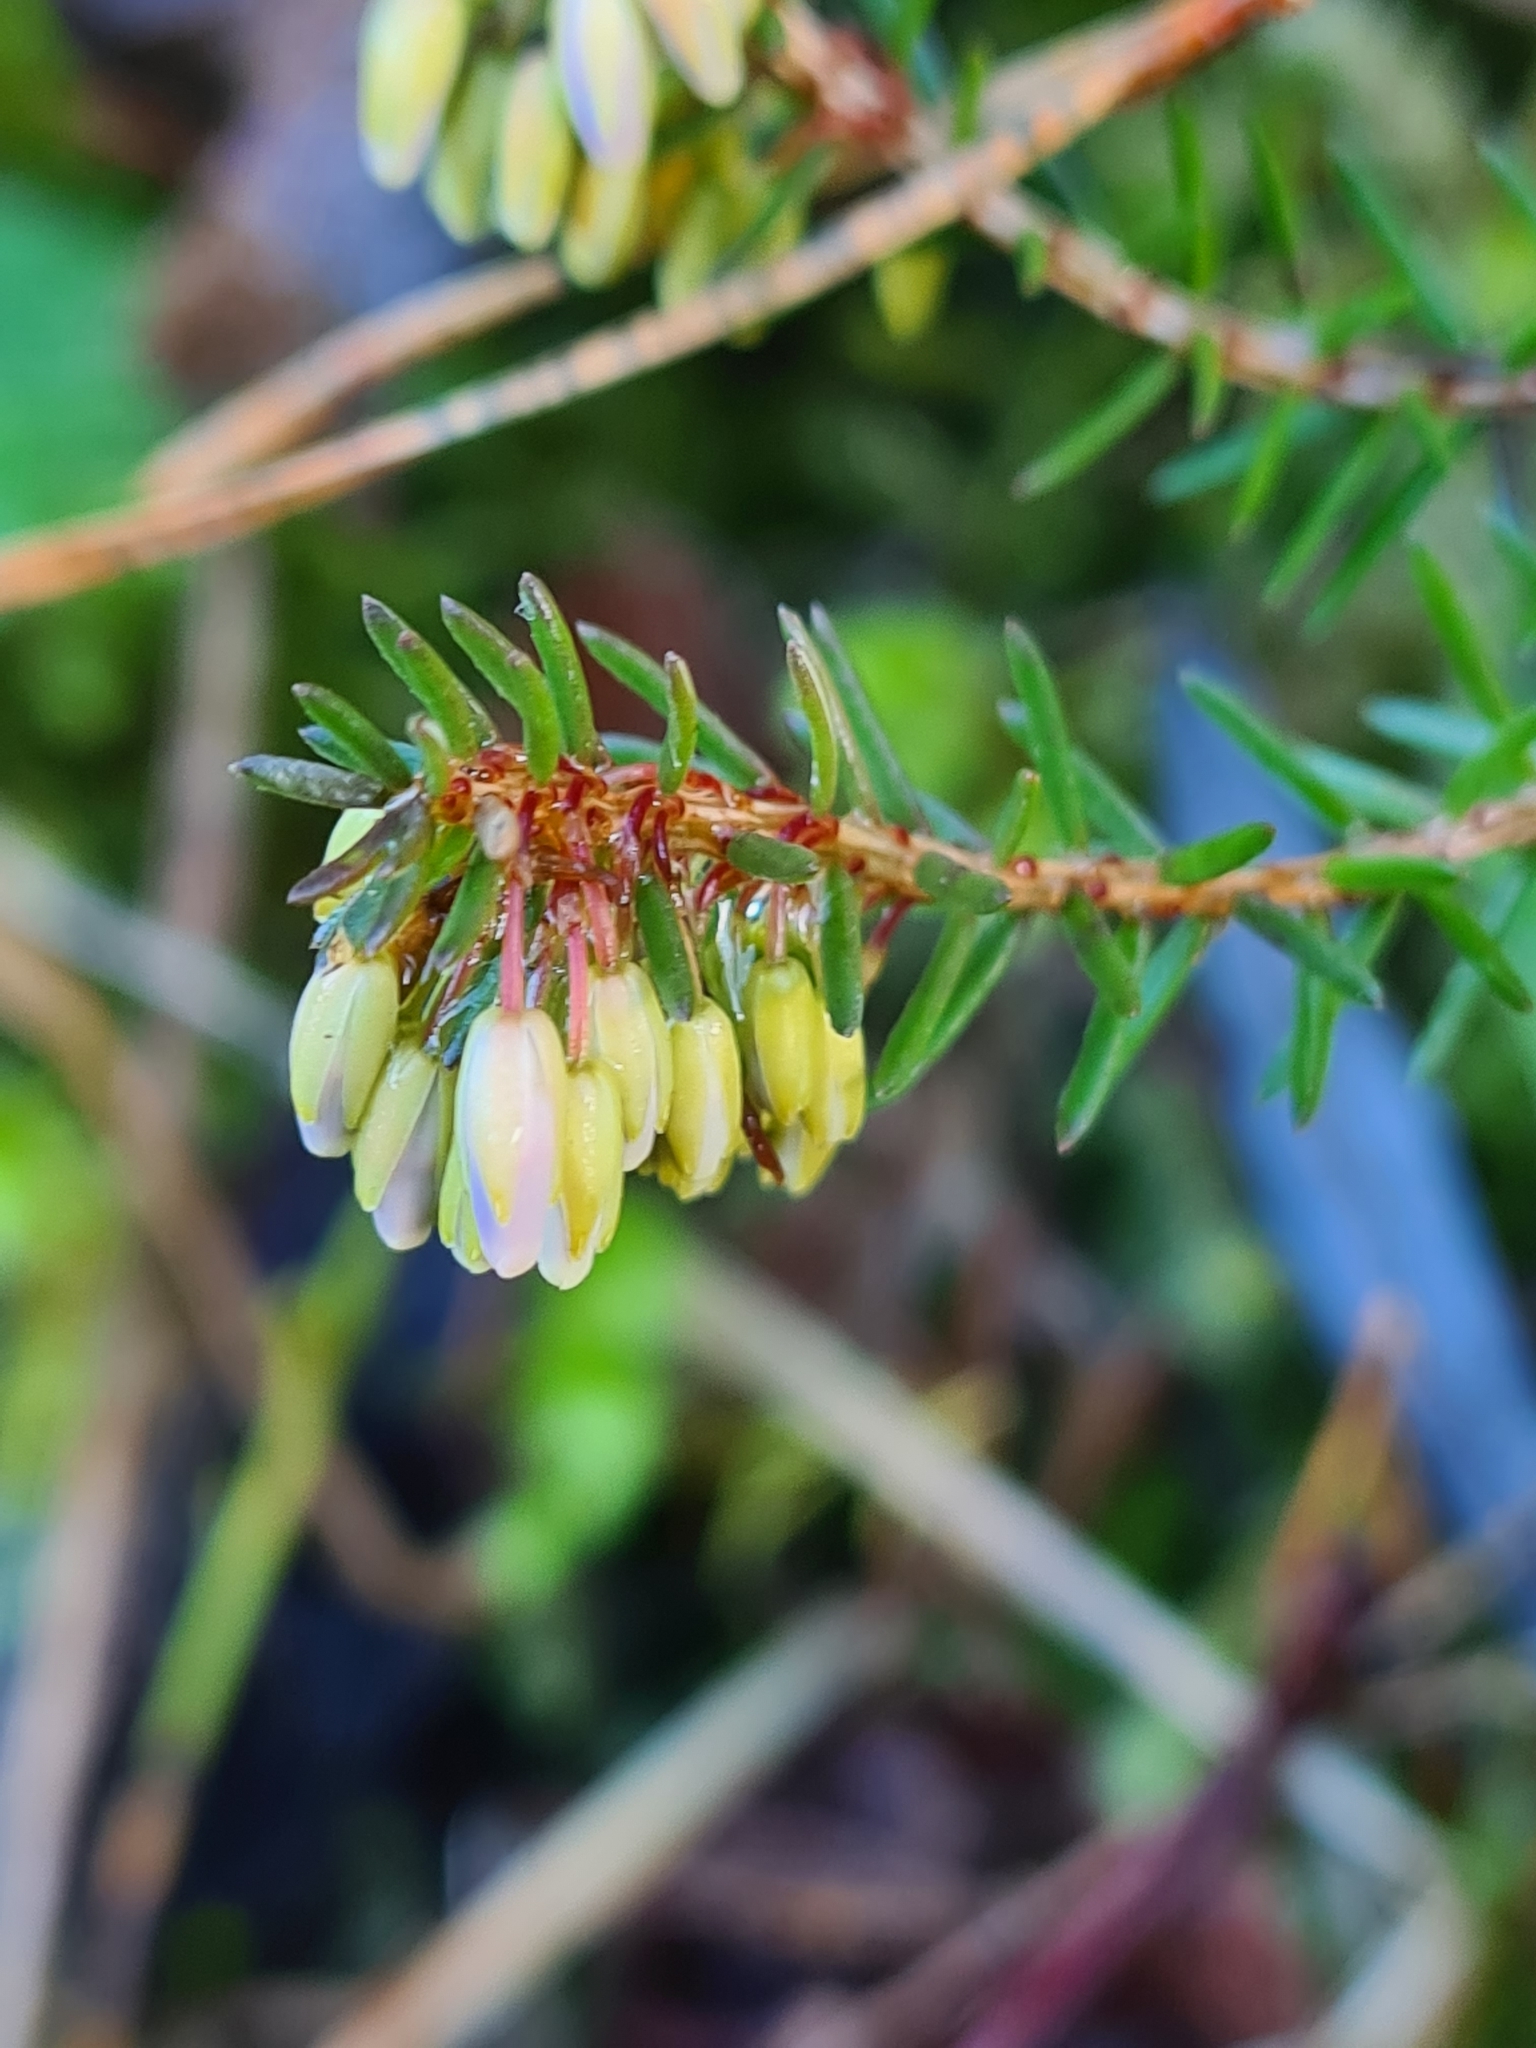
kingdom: Plantae
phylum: Tracheophyta
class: Magnoliopsida
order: Ericales
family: Ericaceae
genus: Erica
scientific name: Erica carnea
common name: Winter heath
